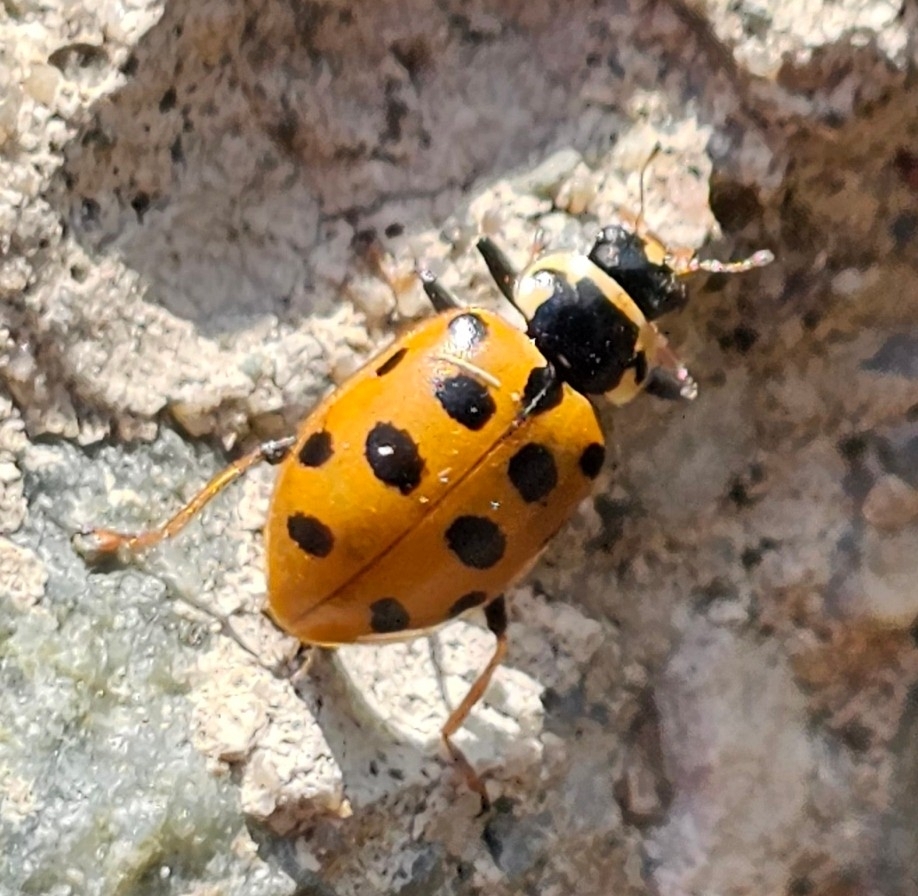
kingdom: Animalia
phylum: Arthropoda
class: Insecta
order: Coleoptera
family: Coccinellidae
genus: Hippodamia
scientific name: Hippodamia tredecimpunctata
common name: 13-spot ladybird
